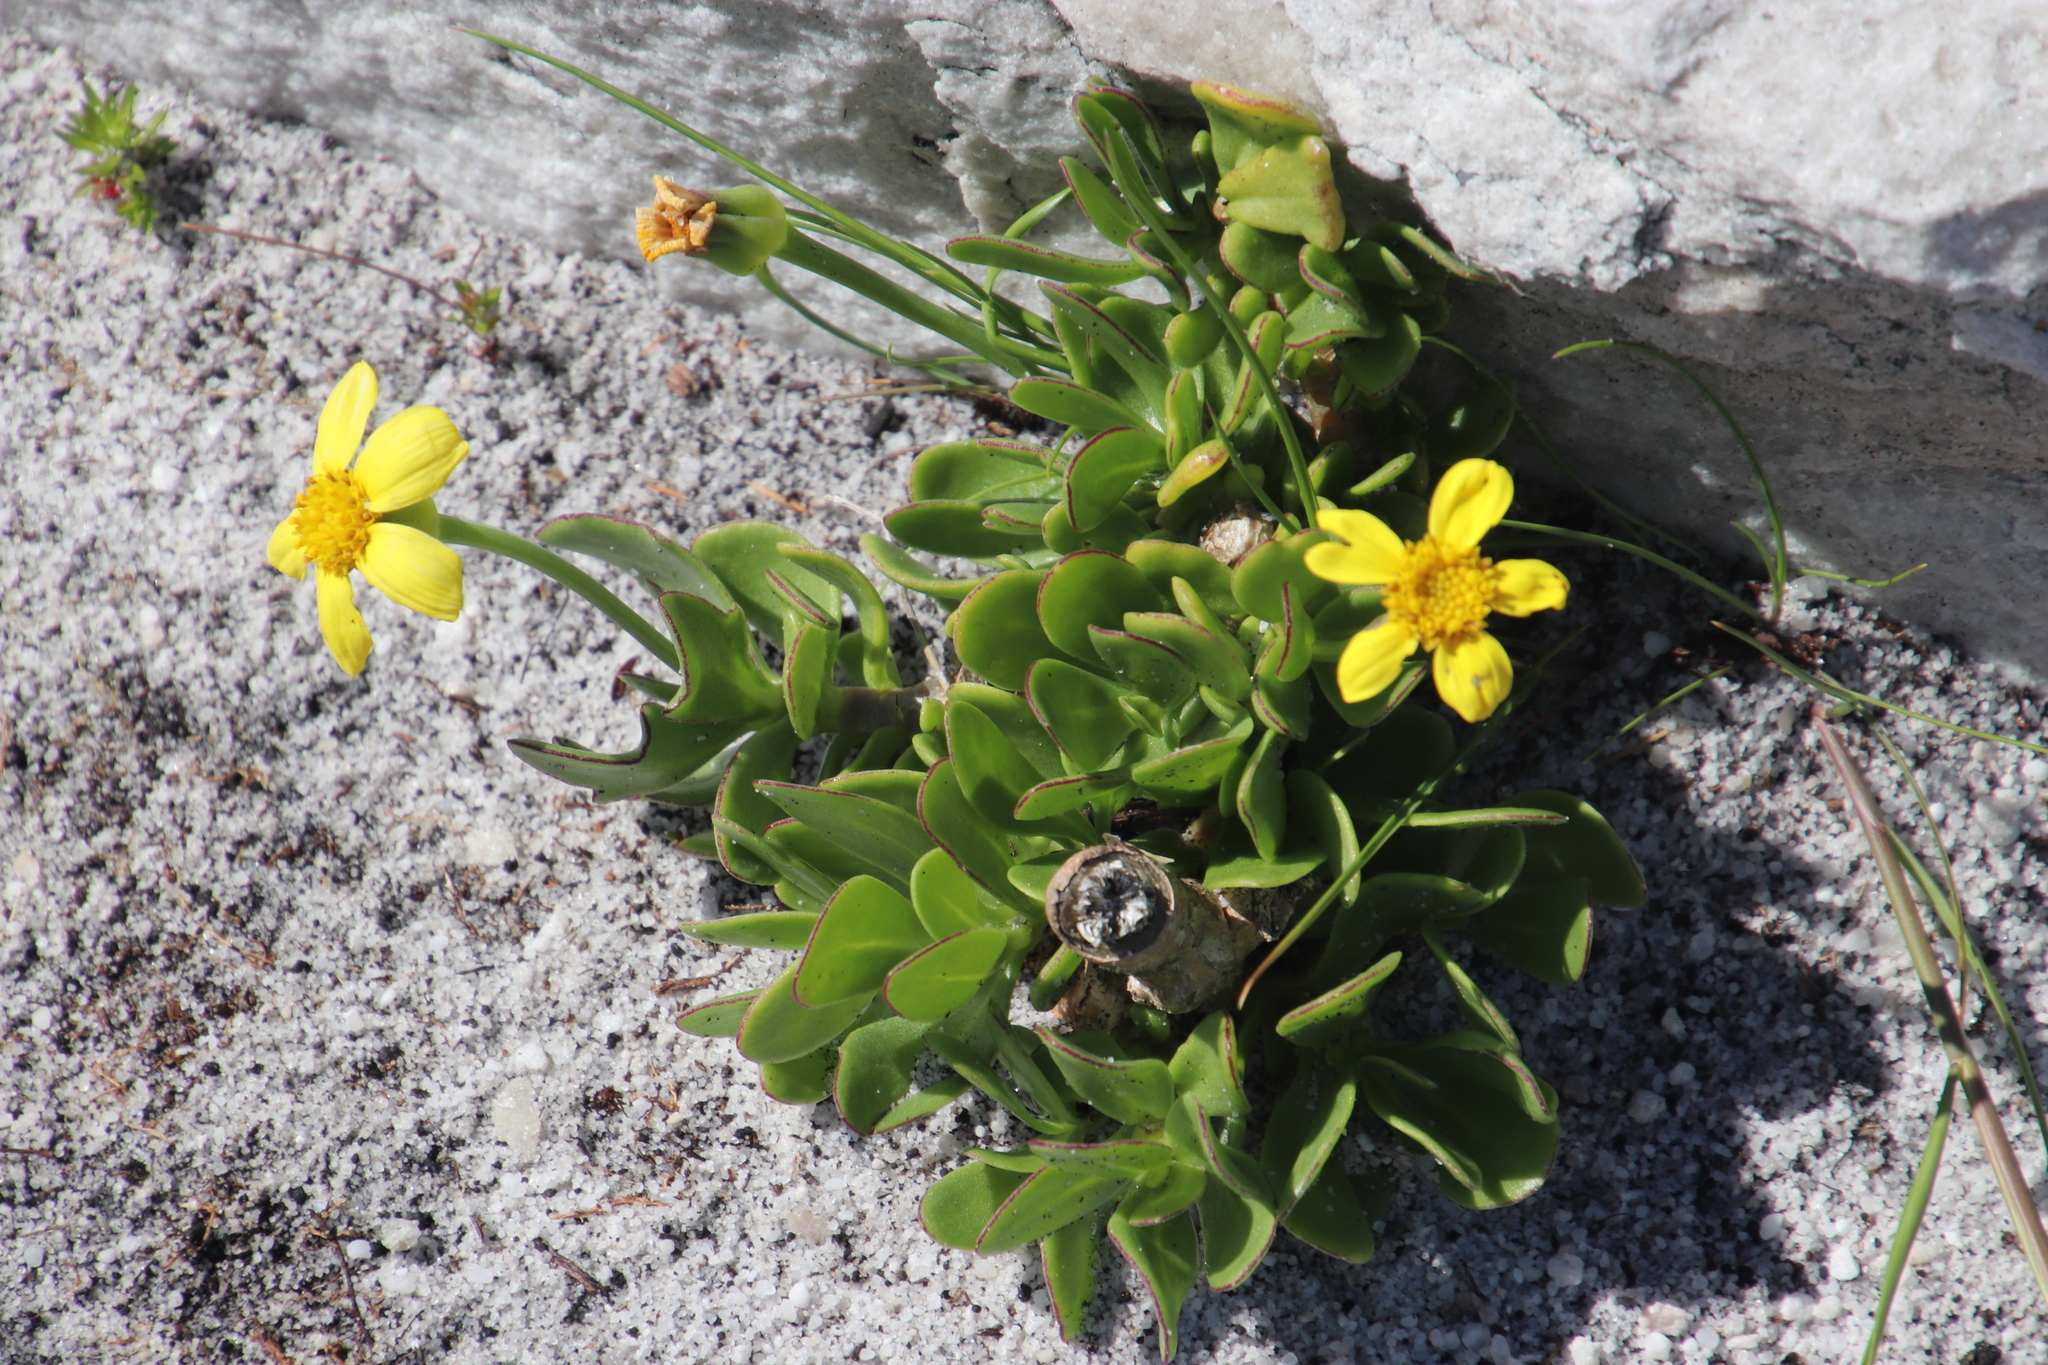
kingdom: Plantae
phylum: Tracheophyta
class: Magnoliopsida
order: Asterales
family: Asteraceae
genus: Othonna
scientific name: Othonna arborescens
